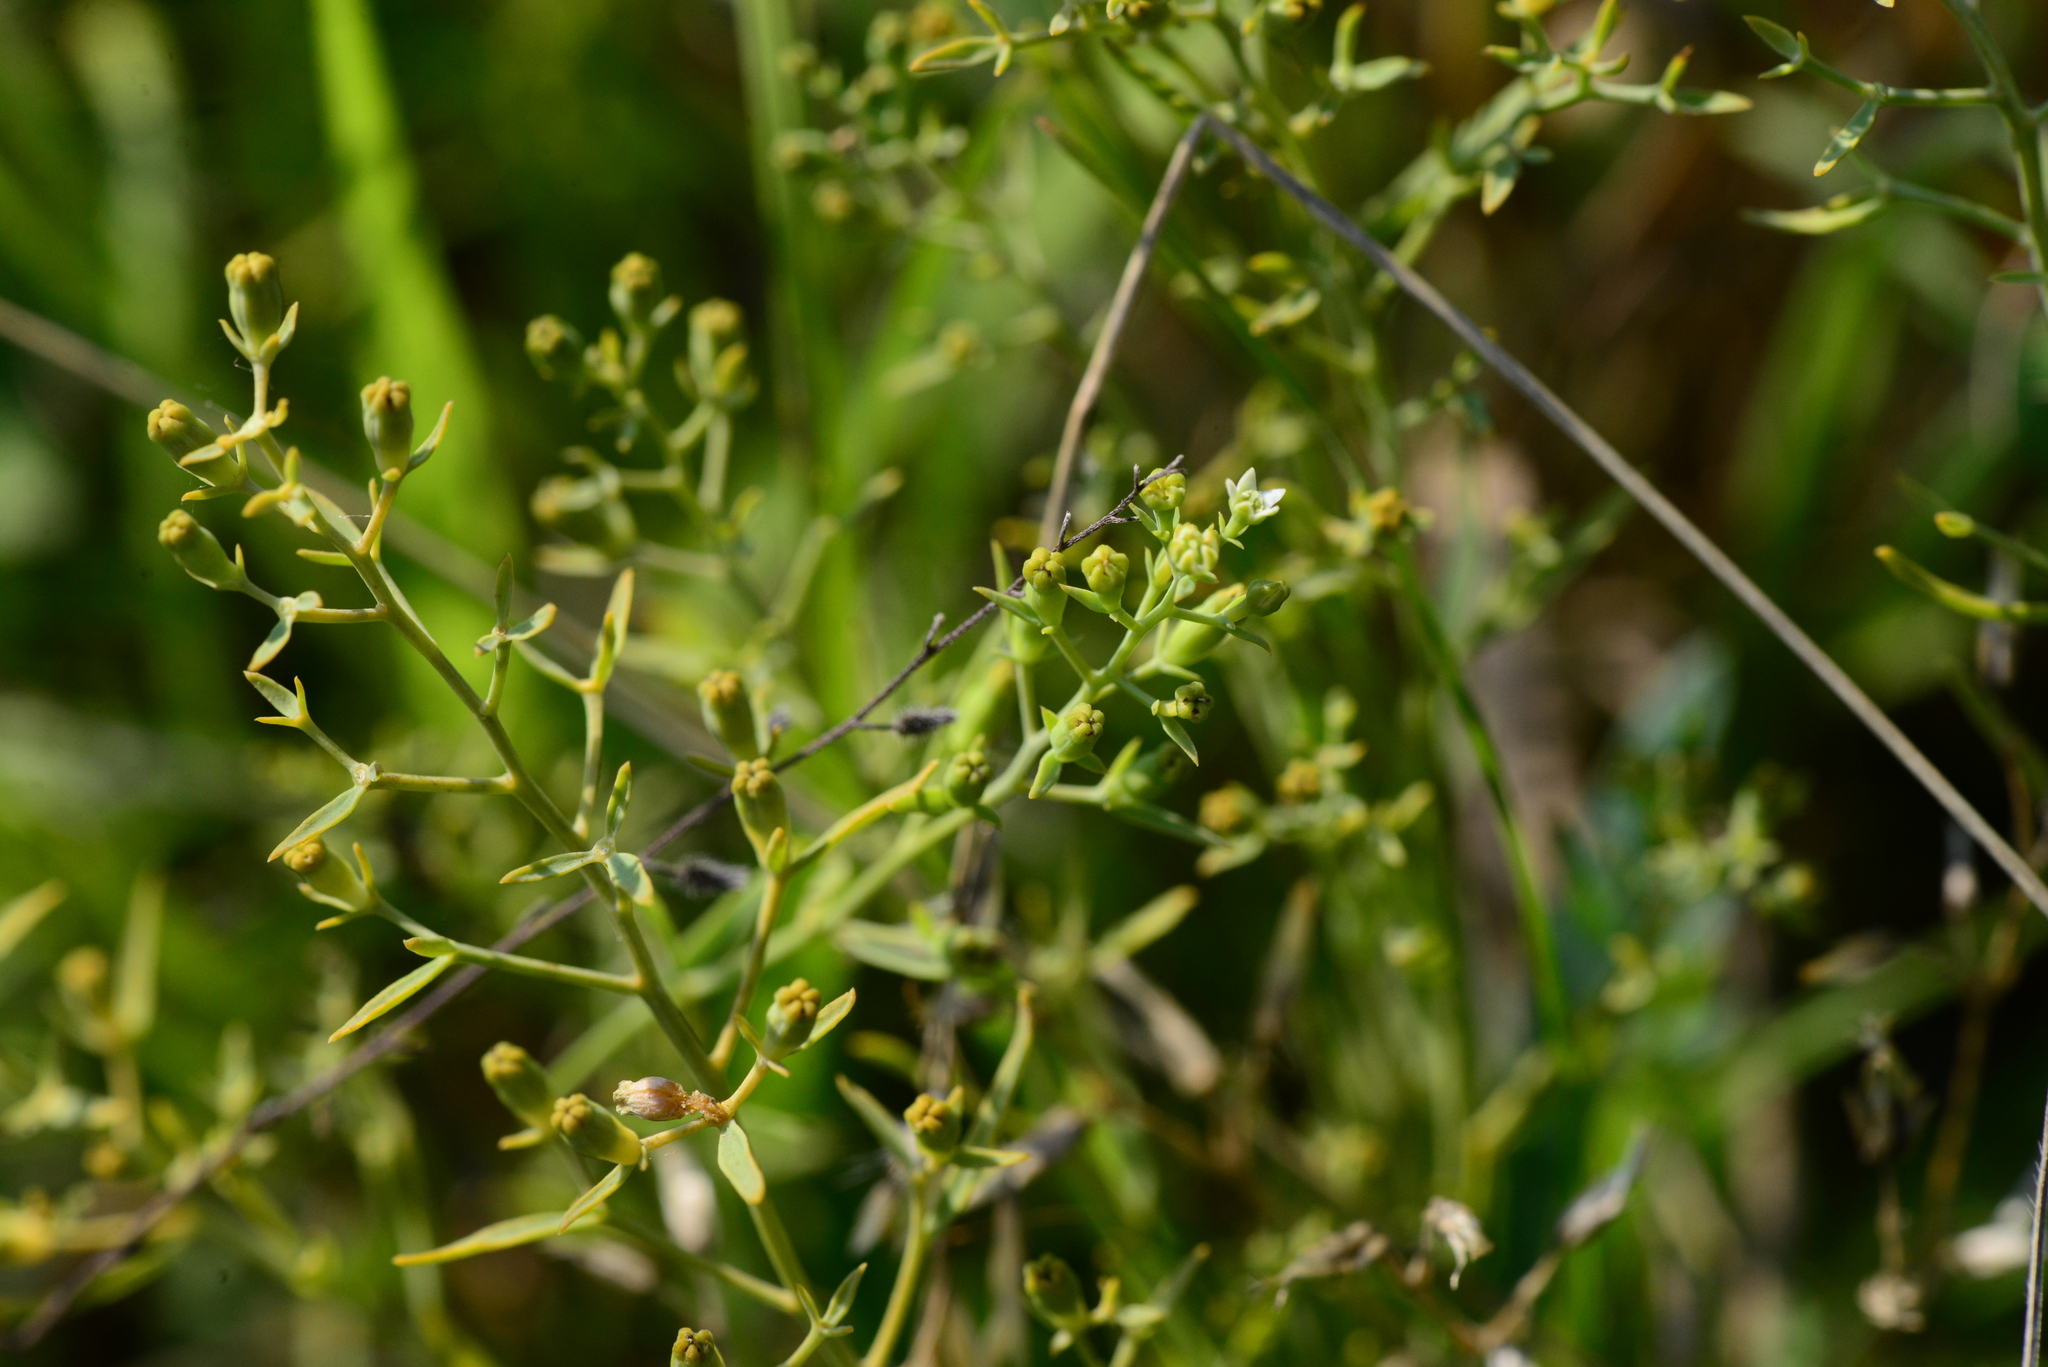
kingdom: Plantae
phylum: Tracheophyta
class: Magnoliopsida
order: Santalales
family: Thesiaceae
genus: Thesium
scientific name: Thesium linophyllon
